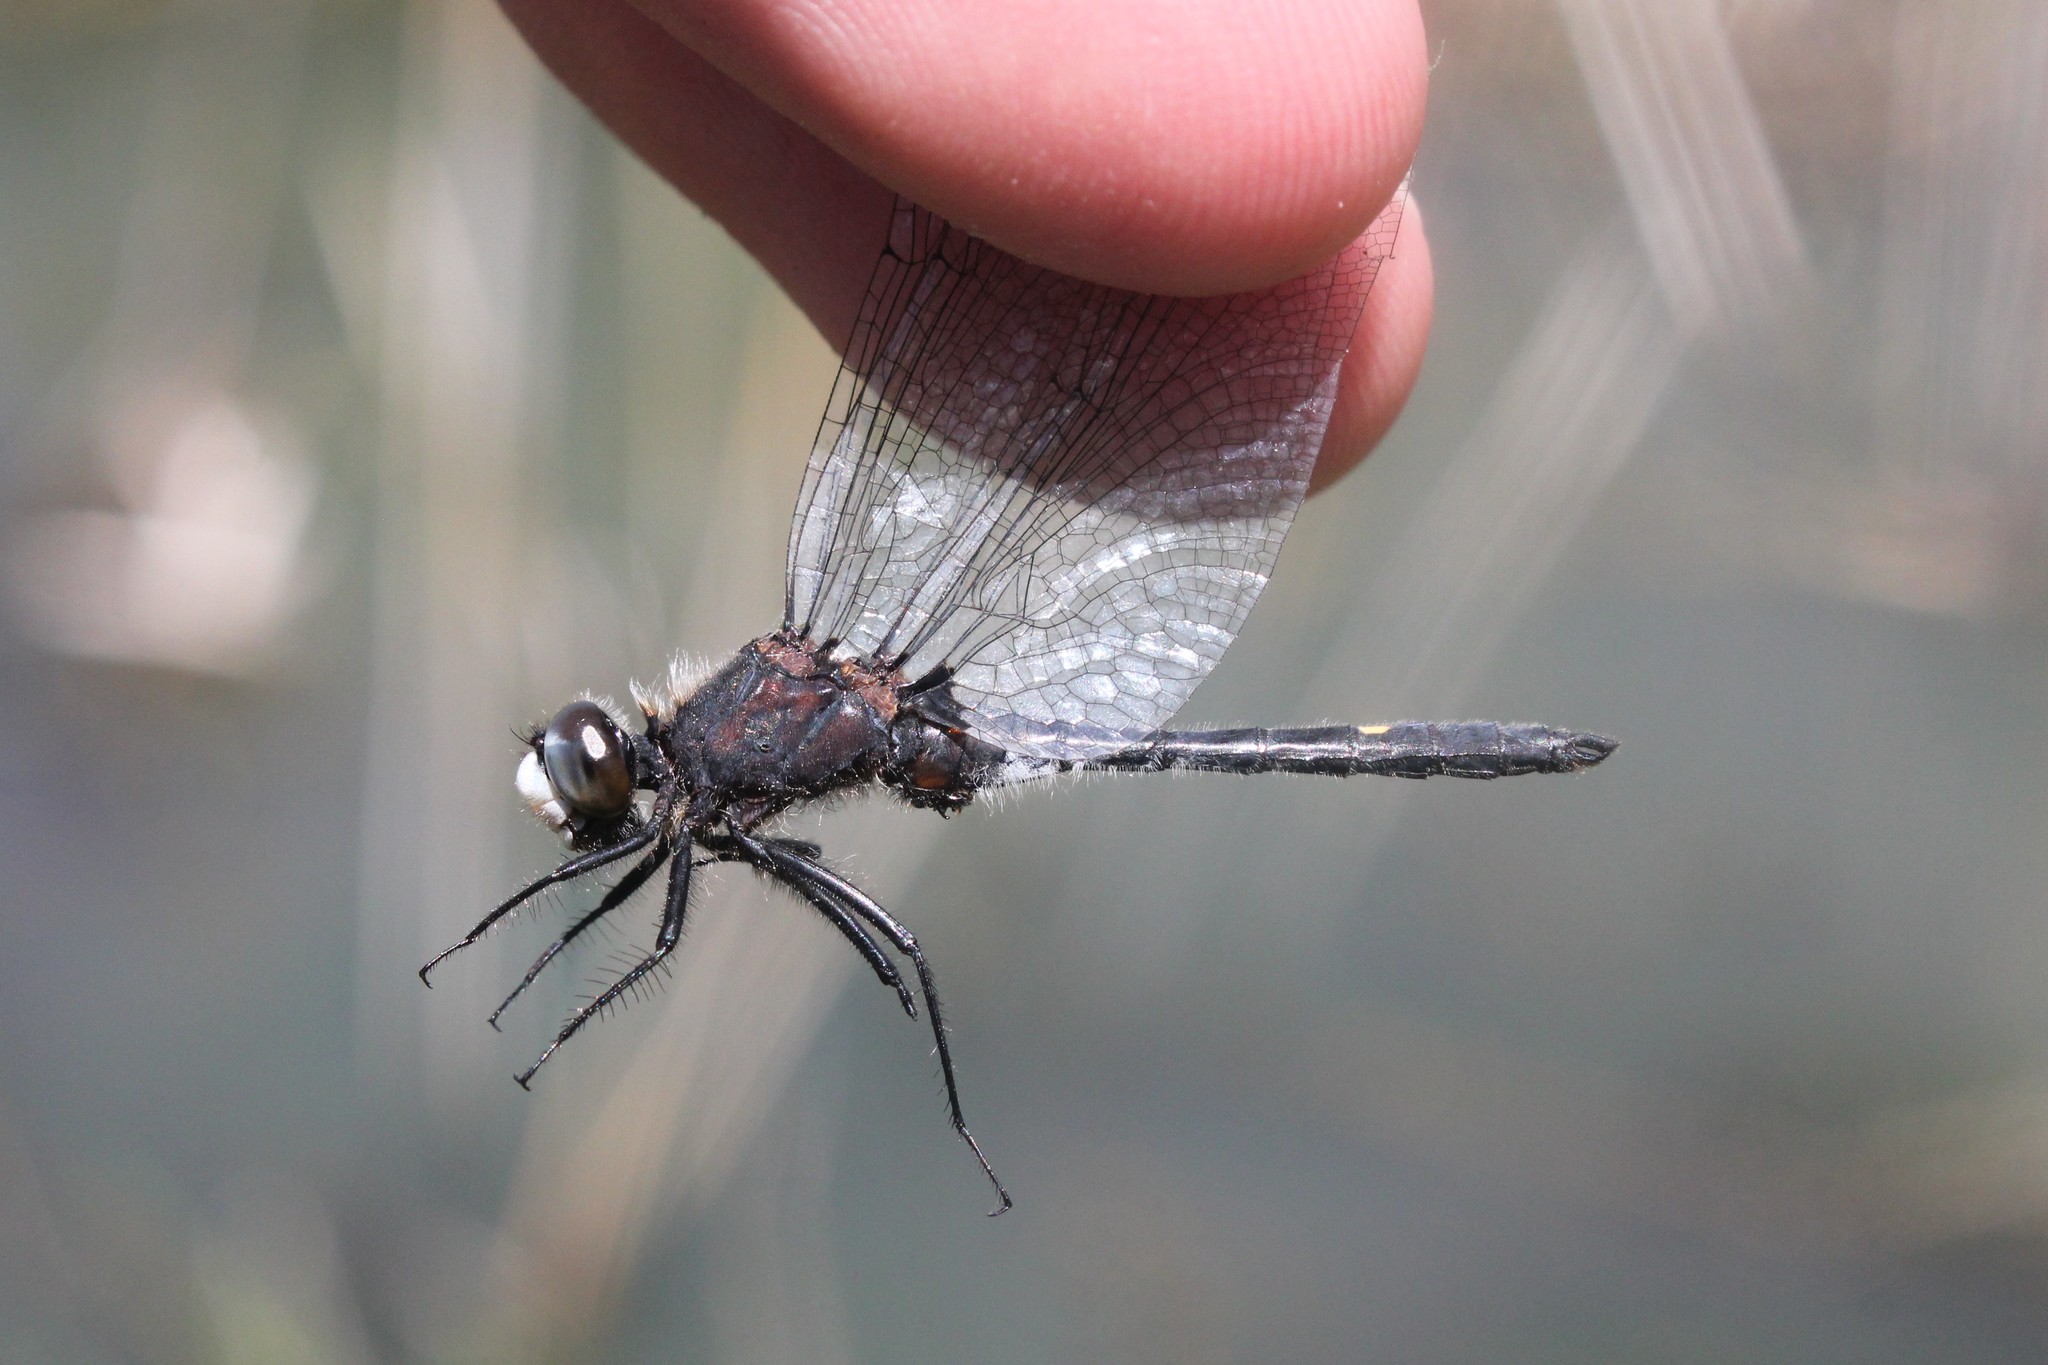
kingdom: Animalia
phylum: Arthropoda
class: Insecta
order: Odonata
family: Libellulidae
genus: Leucorrhinia
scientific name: Leucorrhinia intacta
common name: Dot-tailed whiteface
